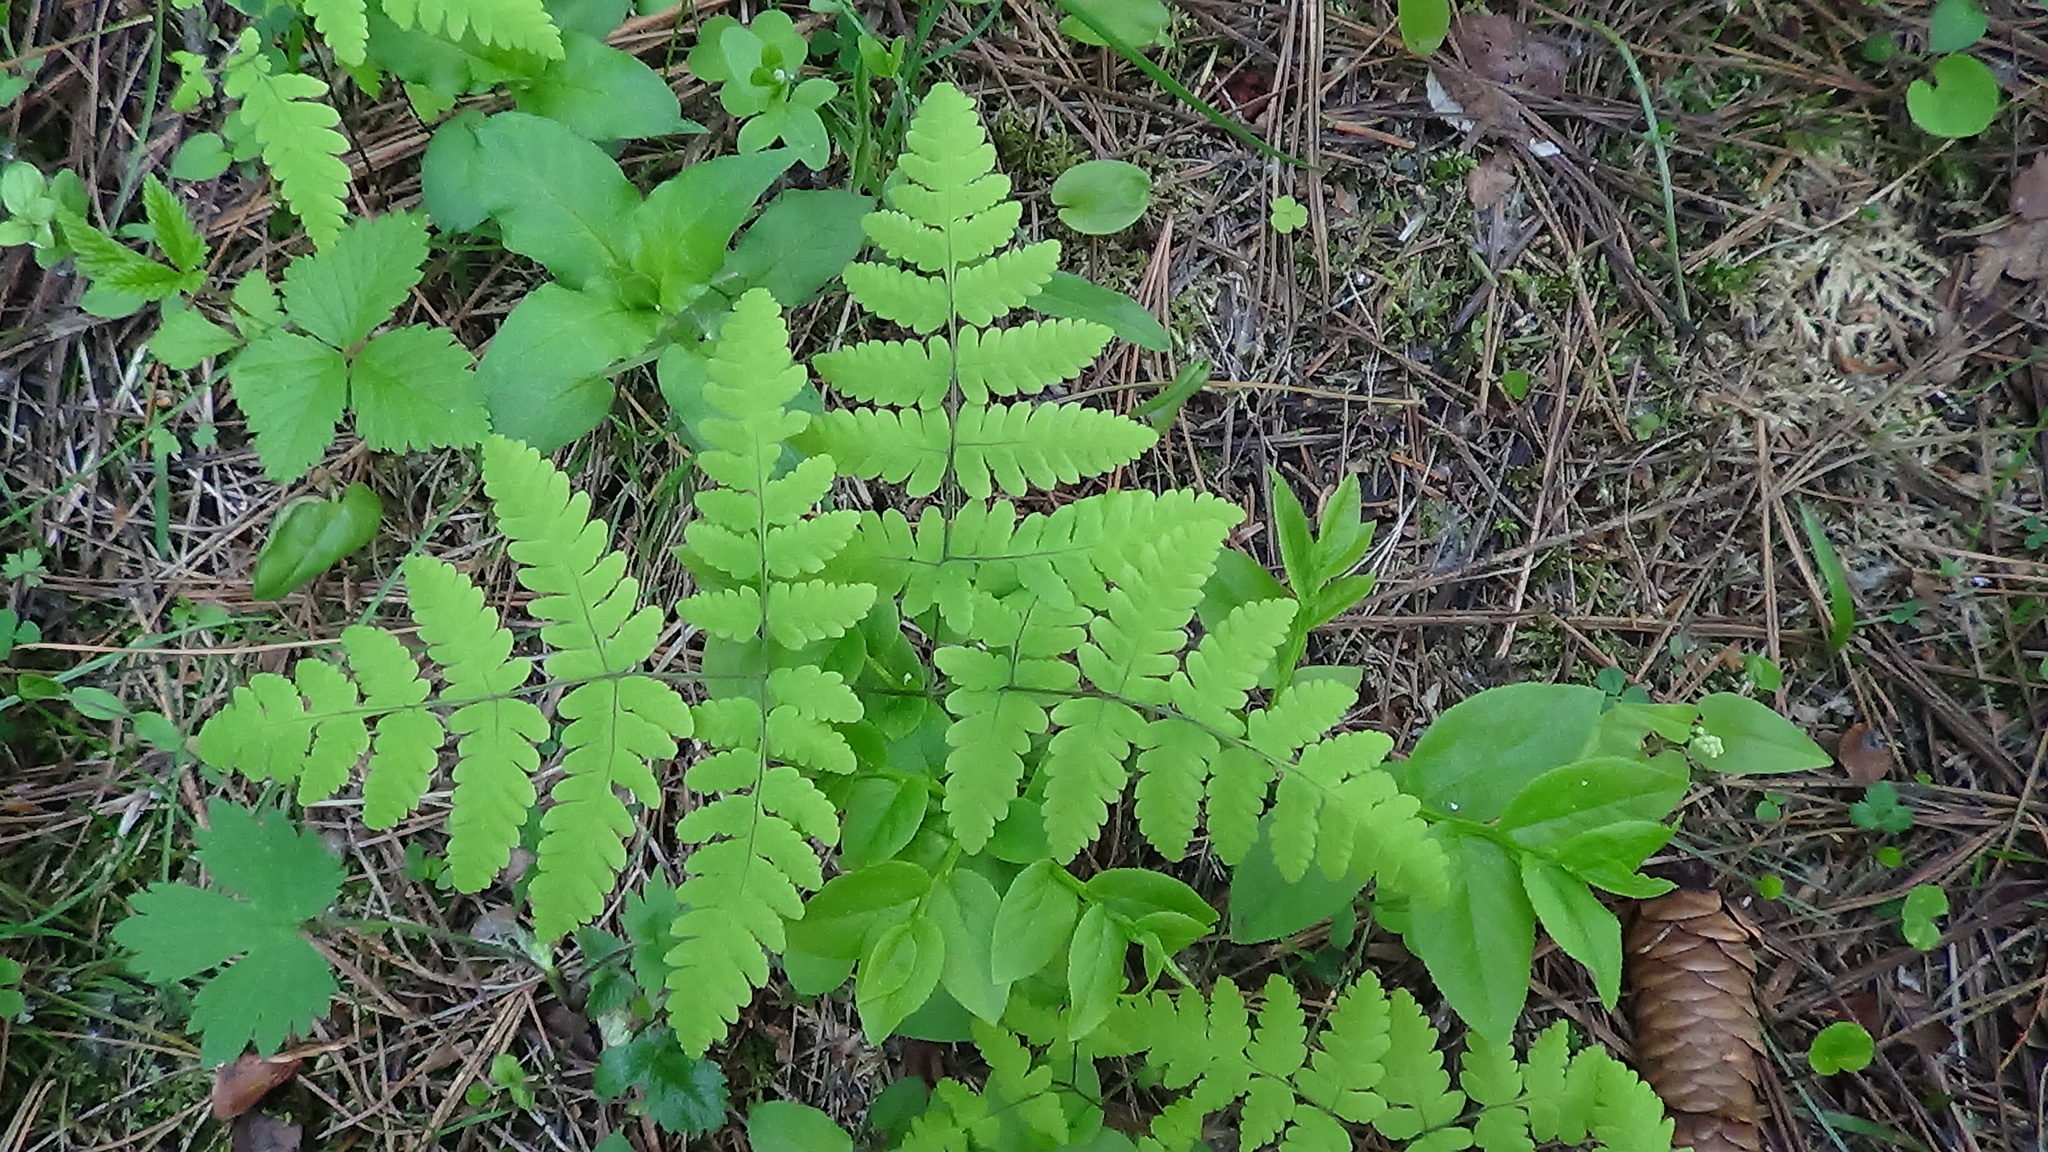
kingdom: Plantae
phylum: Tracheophyta
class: Polypodiopsida
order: Polypodiales
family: Cystopteridaceae
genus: Gymnocarpium
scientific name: Gymnocarpium dryopteris
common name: Oak fern
